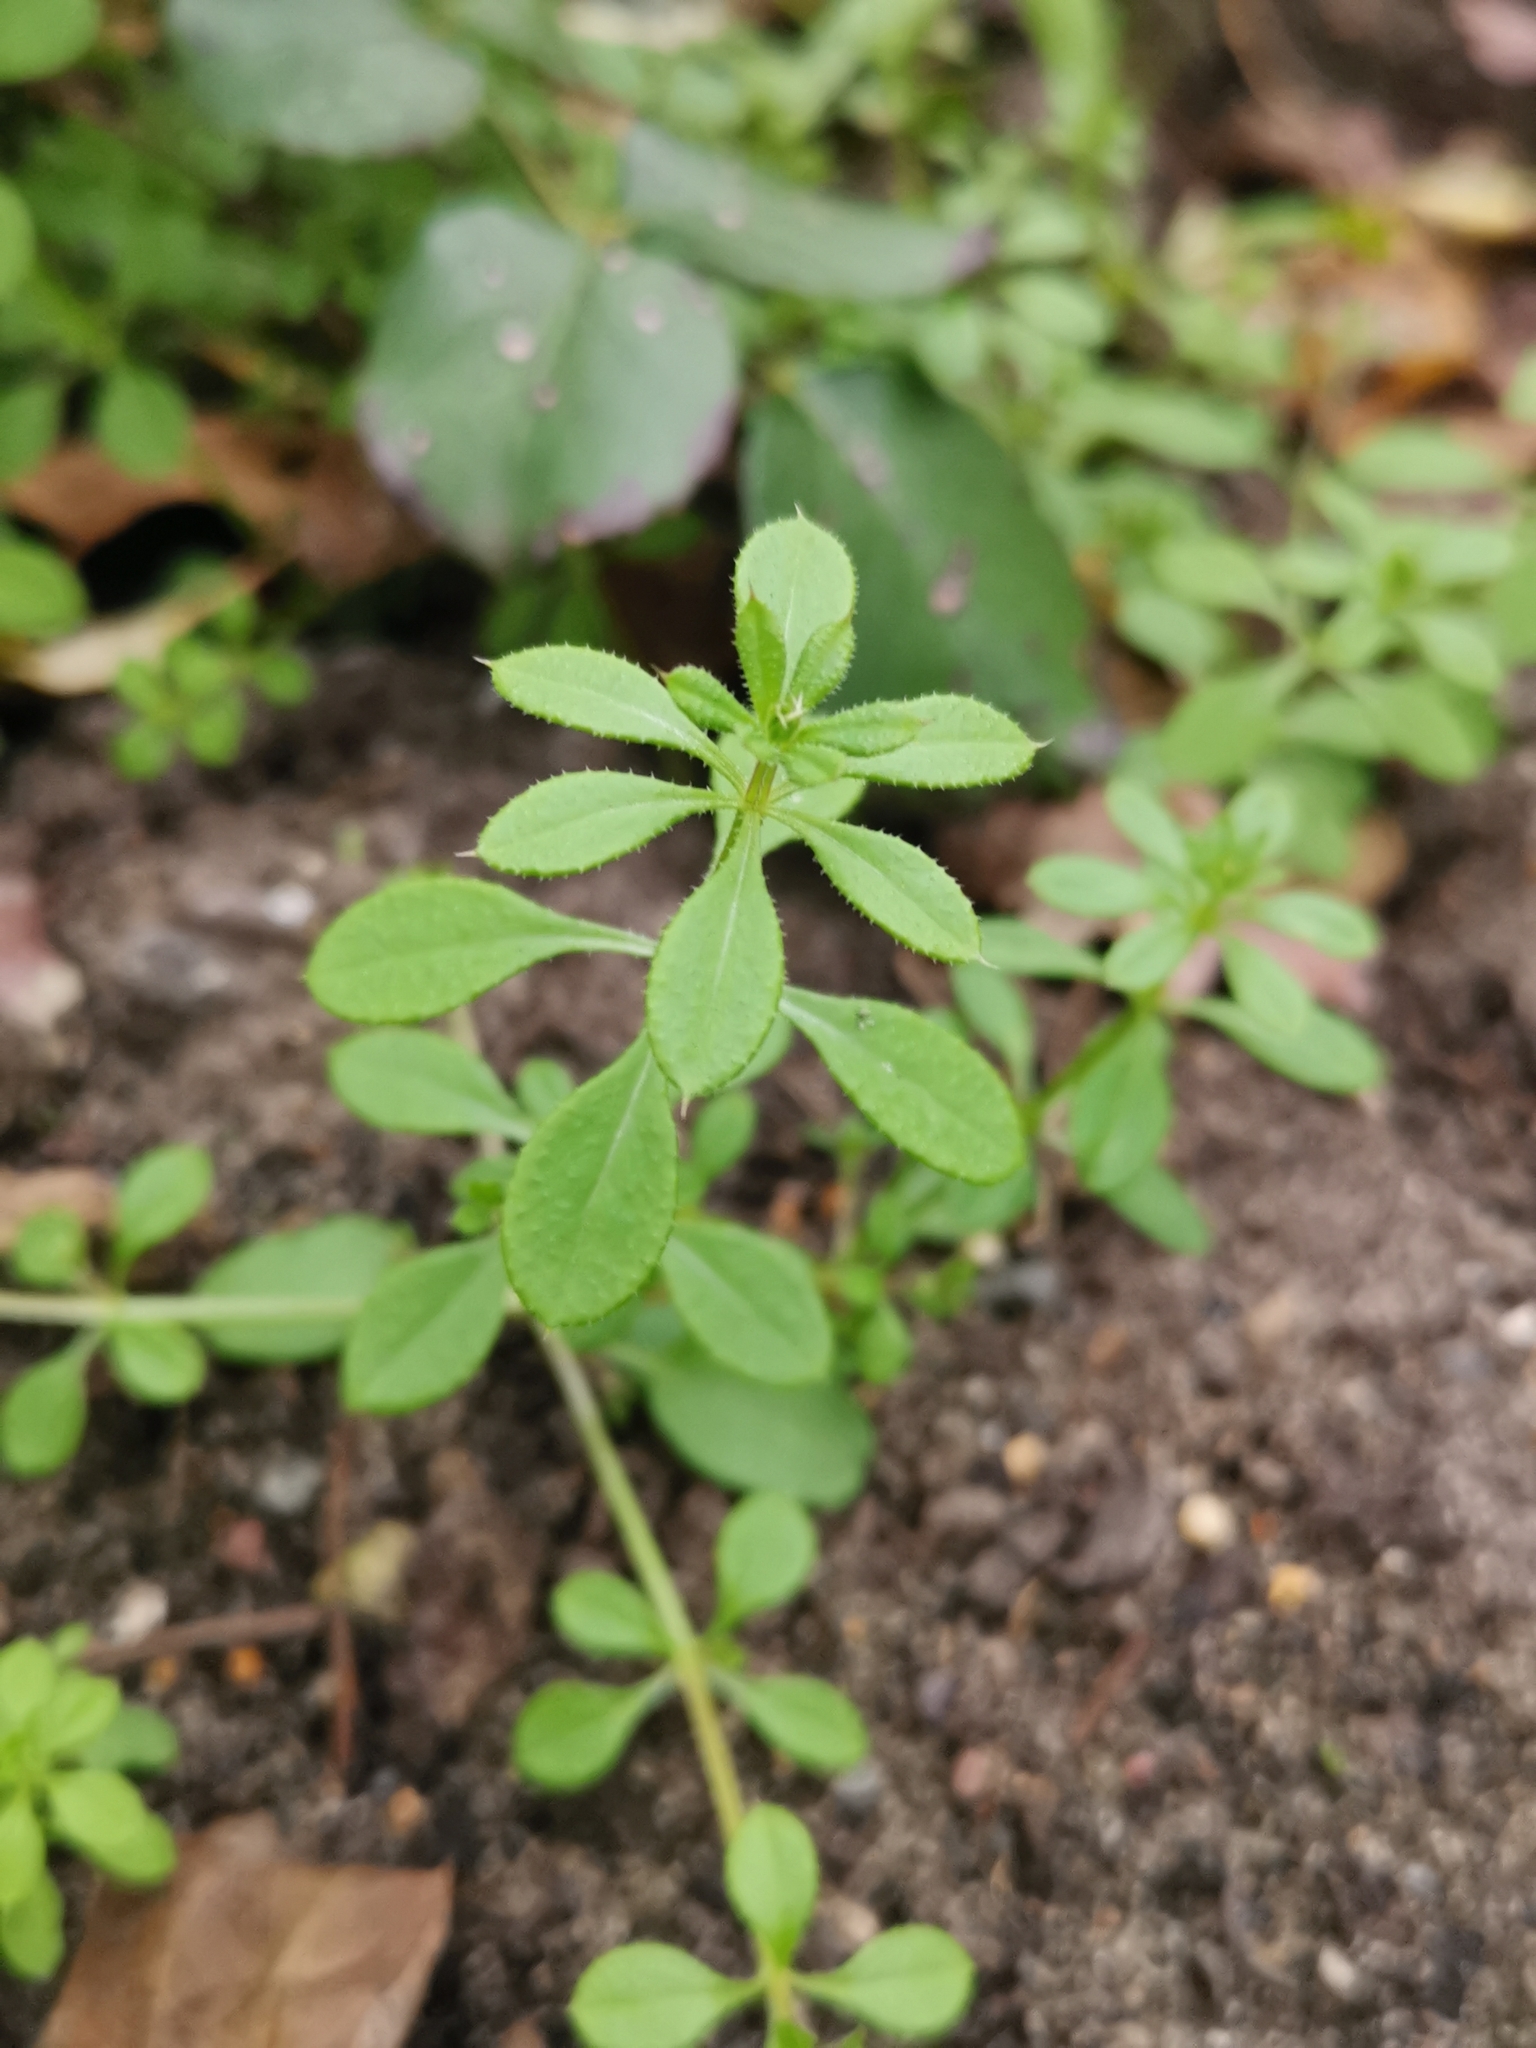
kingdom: Plantae
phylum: Tracheophyta
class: Magnoliopsida
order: Gentianales
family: Rubiaceae
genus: Galium
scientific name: Galium aparine
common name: Cleavers
